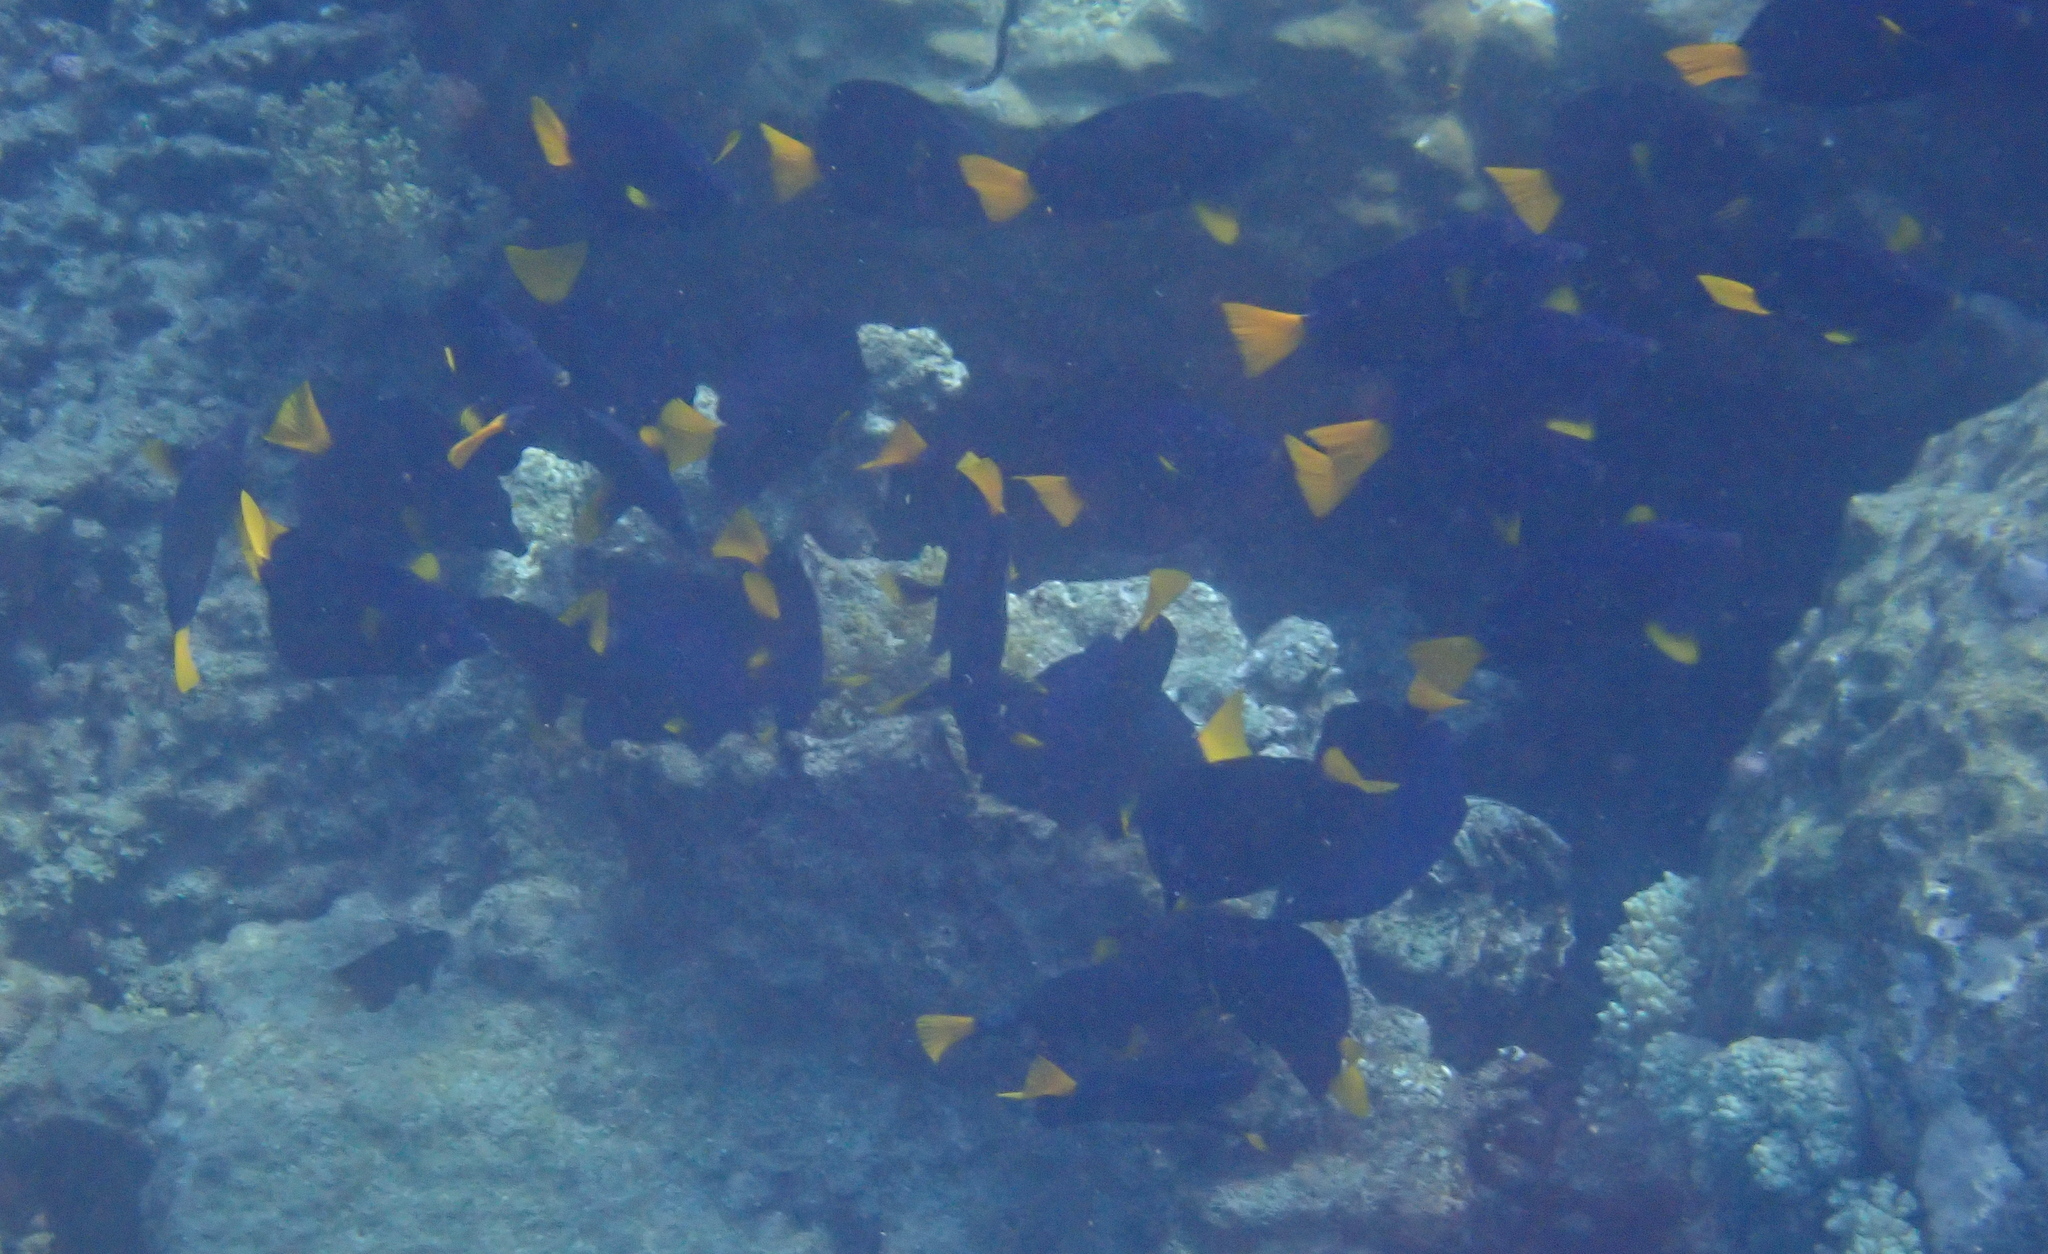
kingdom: Animalia
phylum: Chordata
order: Perciformes
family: Acanthuridae
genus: Zebrasoma
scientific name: Zebrasoma xanthurum
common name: Purple tang
